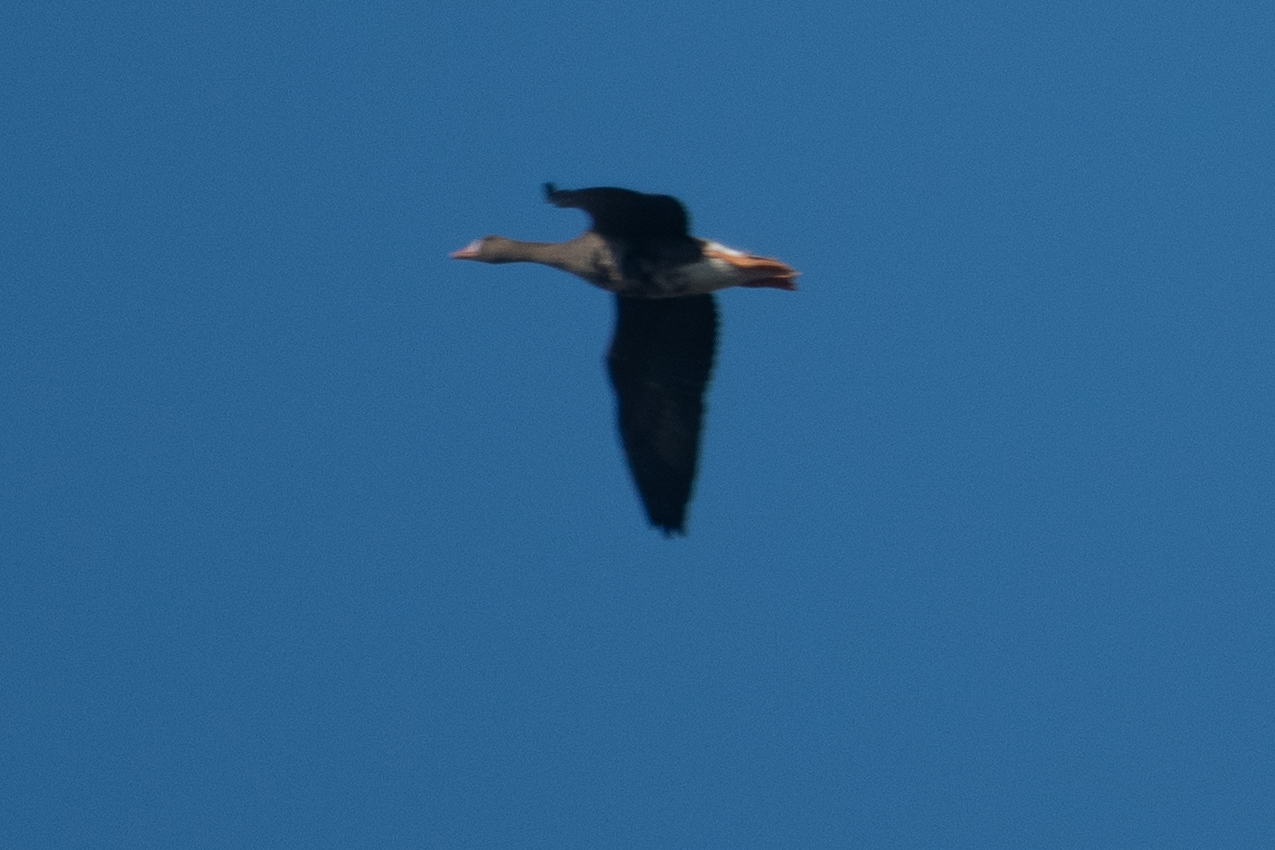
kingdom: Animalia
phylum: Chordata
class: Aves
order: Anseriformes
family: Anatidae
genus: Anser
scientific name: Anser albifrons
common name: Greater white-fronted goose
